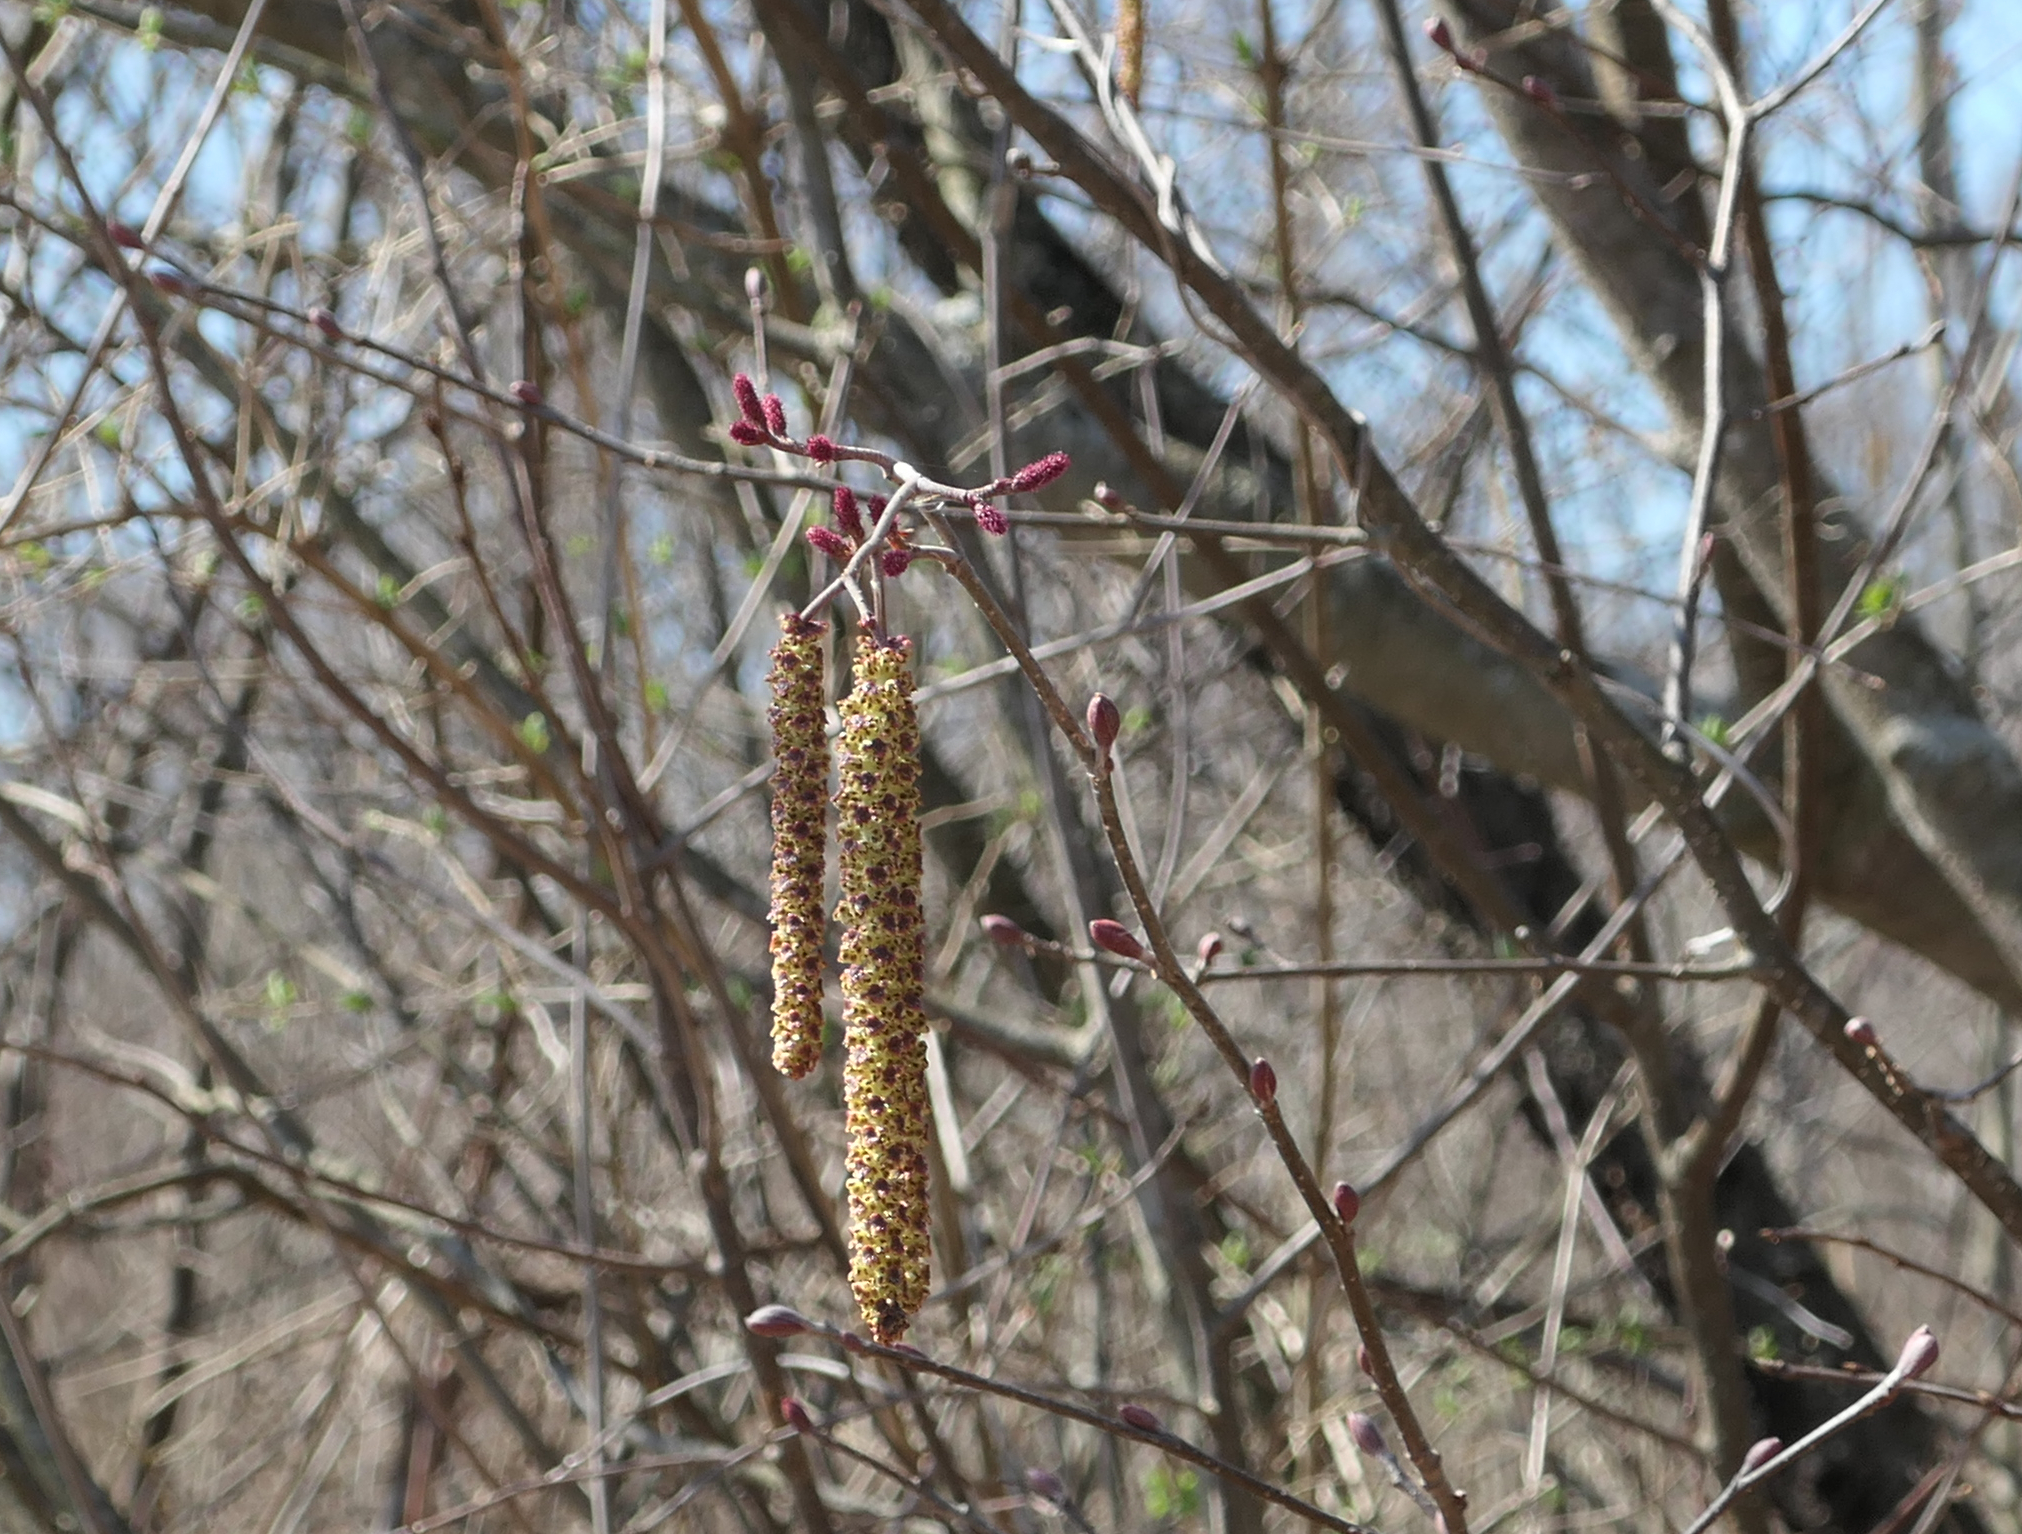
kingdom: Plantae
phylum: Tracheophyta
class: Magnoliopsida
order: Fagales
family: Betulaceae
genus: Alnus
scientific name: Alnus incana
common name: Grey alder
